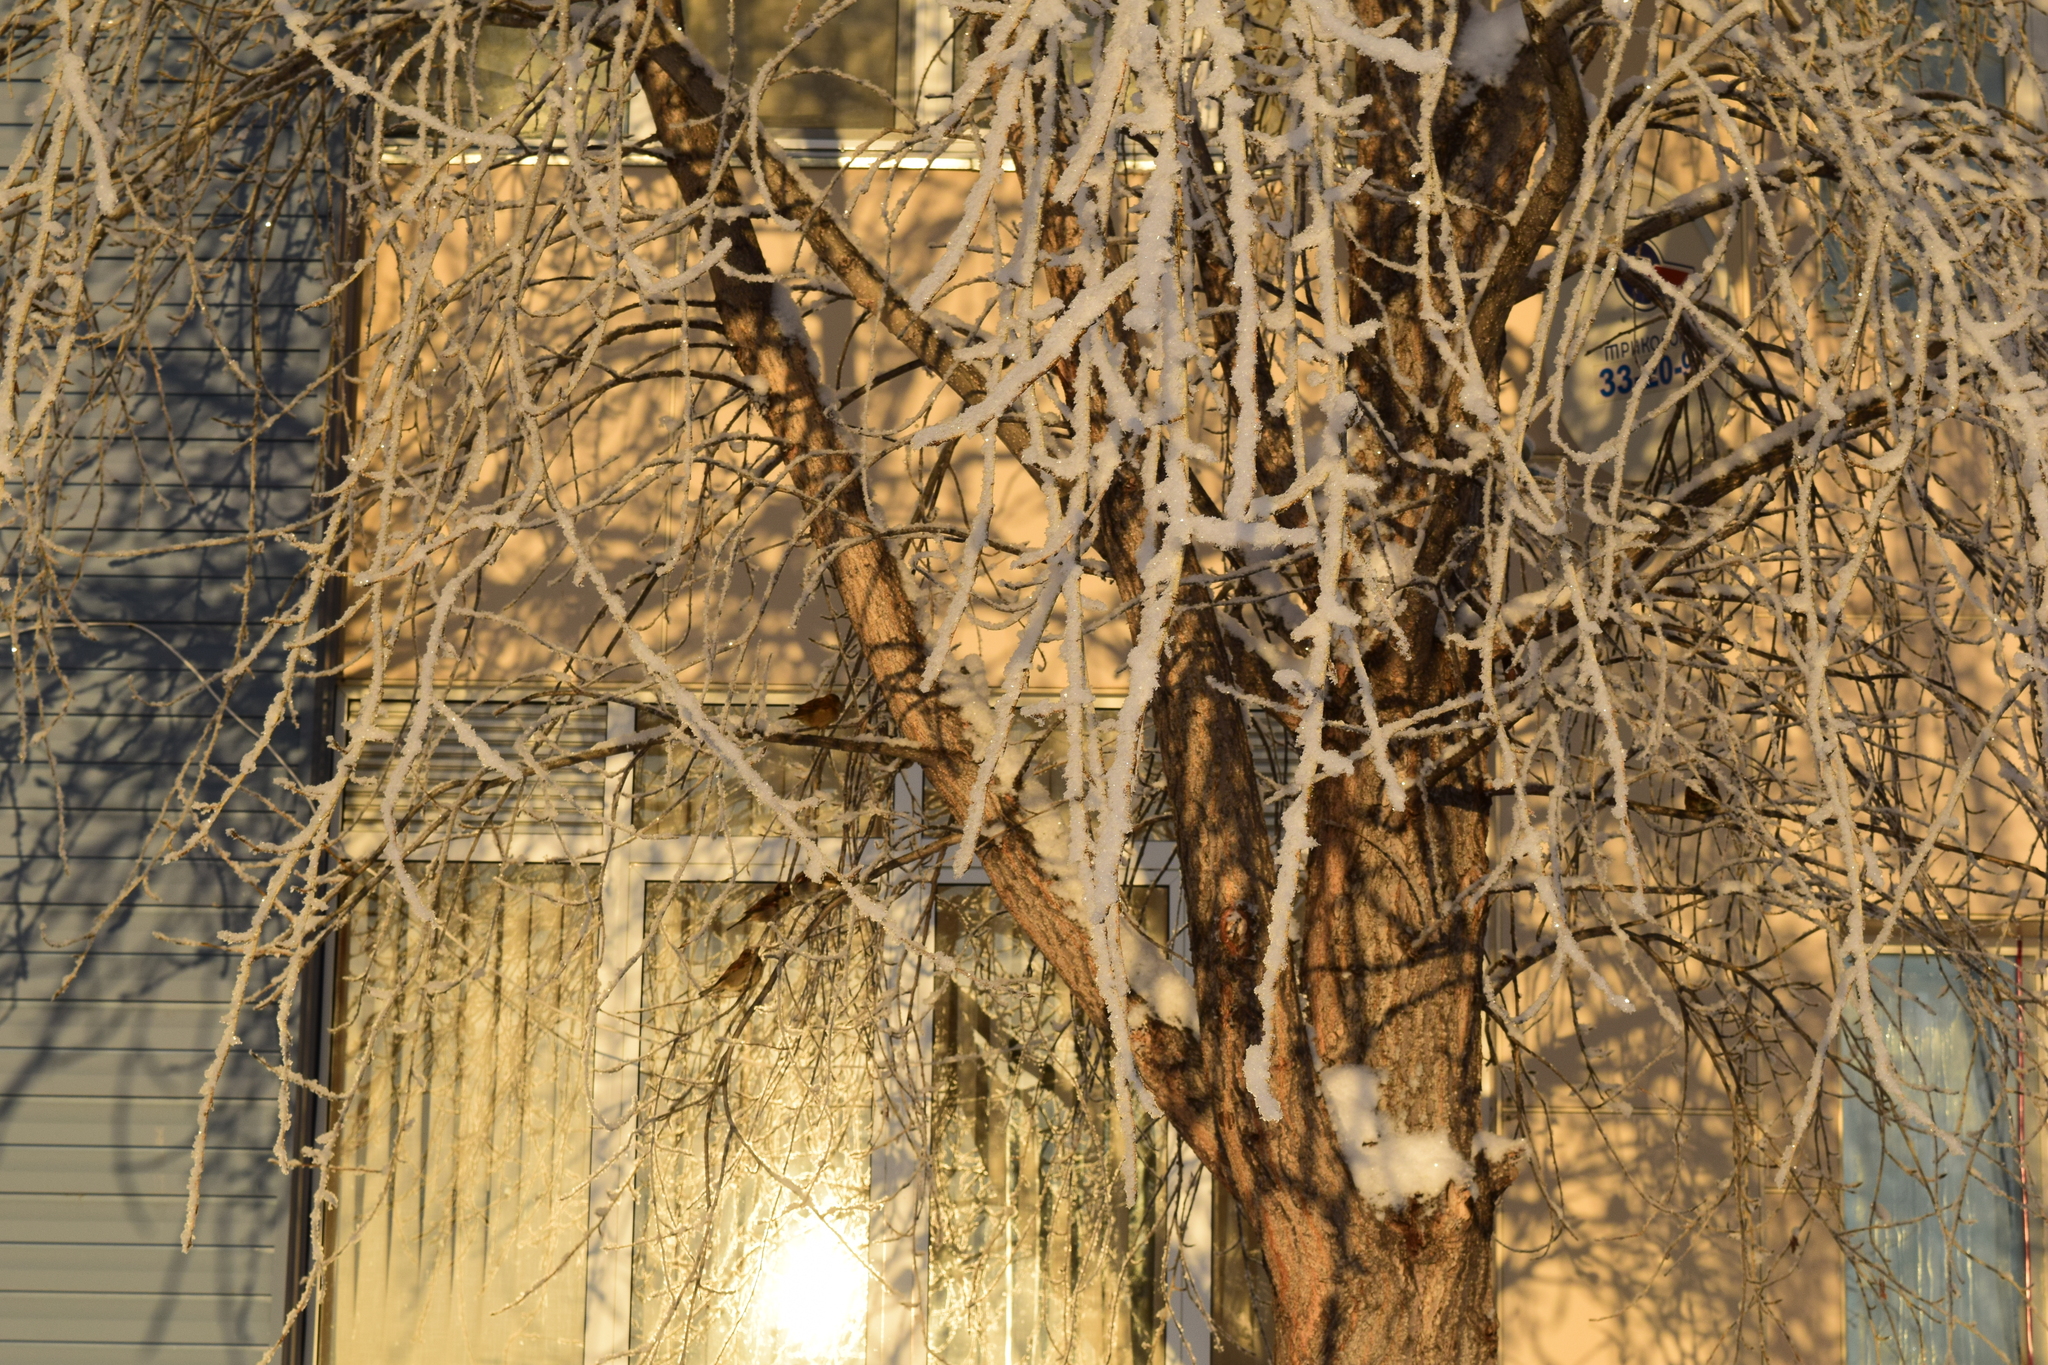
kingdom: Animalia
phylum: Chordata
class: Aves
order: Passeriformes
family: Passeridae
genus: Passer
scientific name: Passer domesticus
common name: House sparrow
